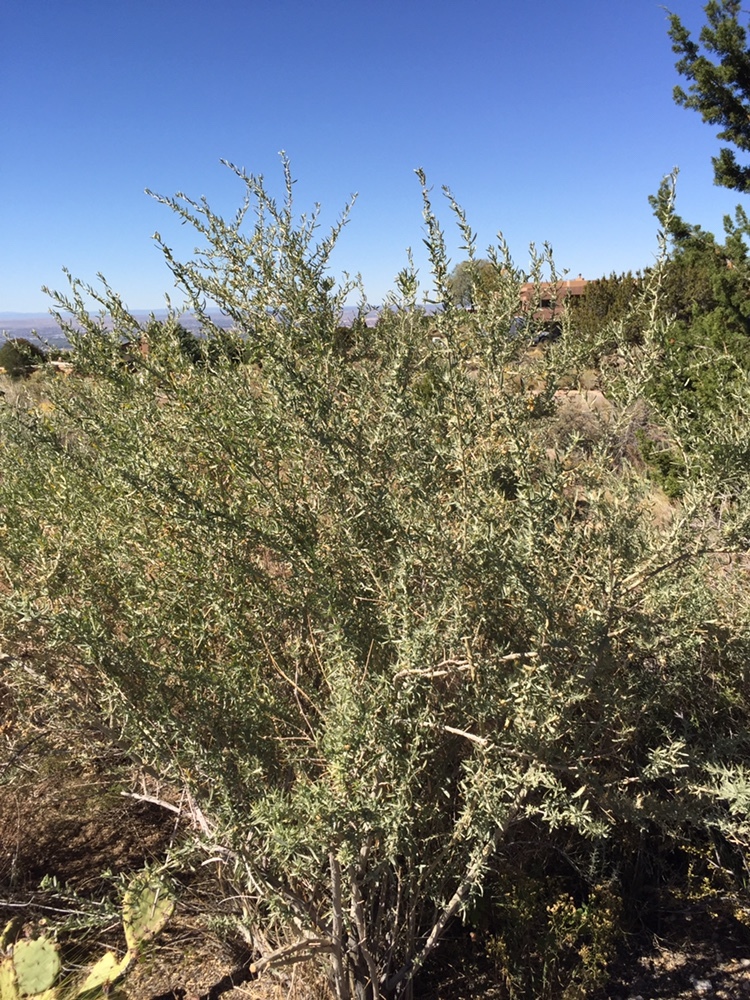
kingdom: Plantae
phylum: Tracheophyta
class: Magnoliopsida
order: Caryophyllales
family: Amaranthaceae
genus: Atriplex
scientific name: Atriplex canescens
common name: Four-wing saltbush
